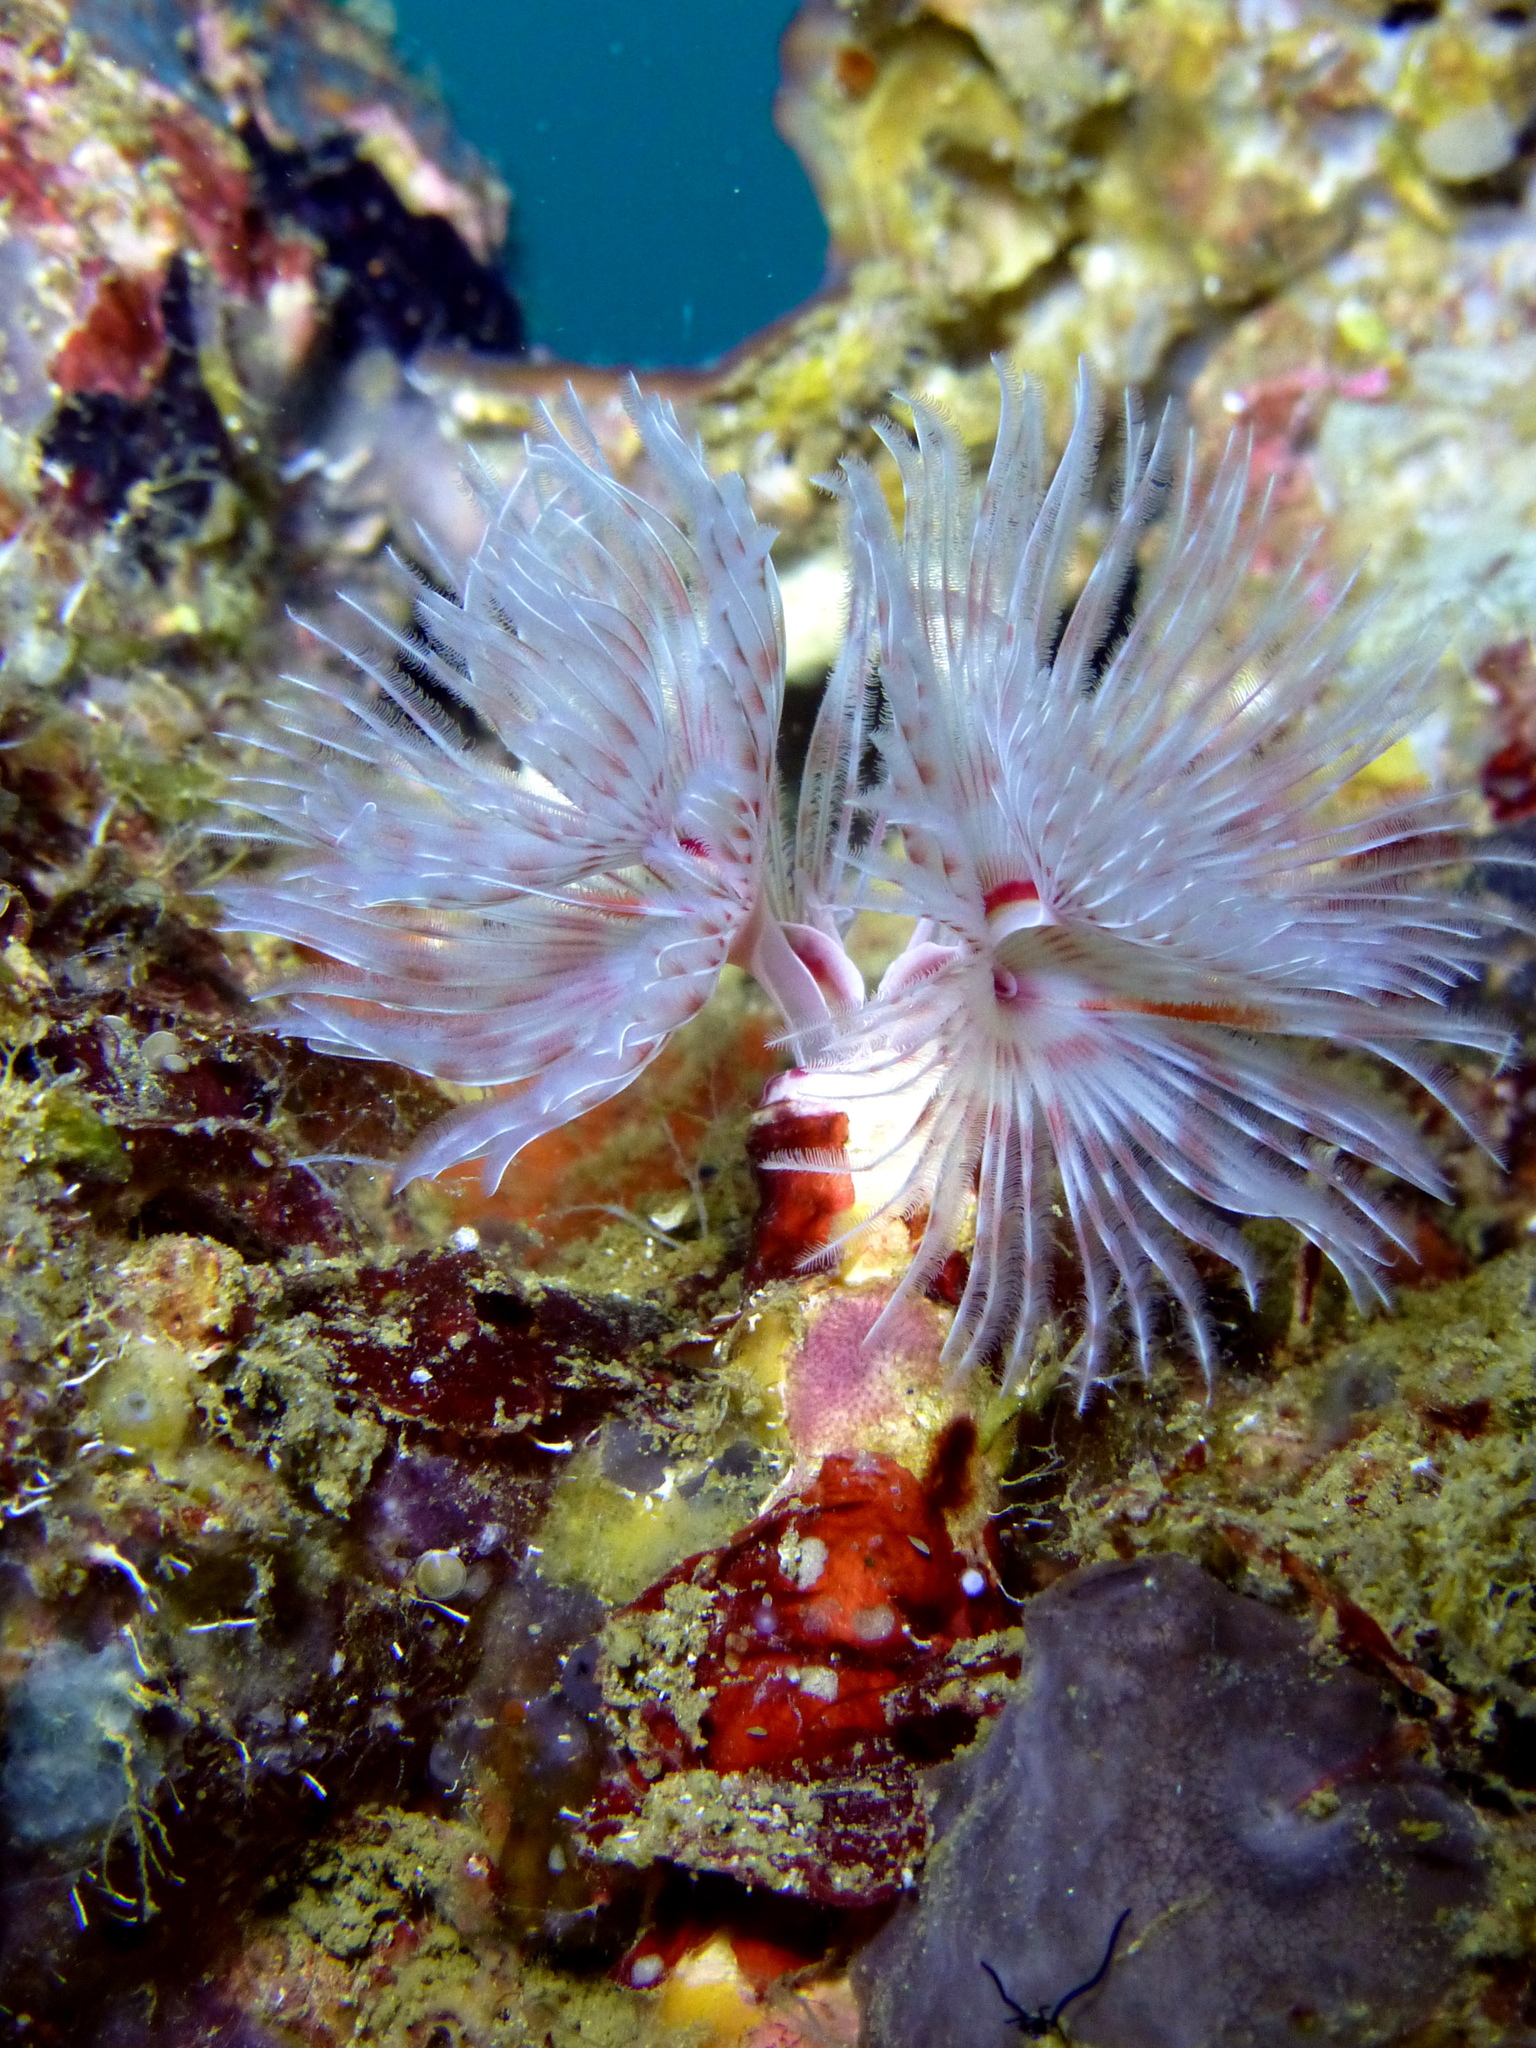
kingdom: Animalia
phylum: Annelida
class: Polychaeta
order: Sabellida
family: Serpulidae
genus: Protula
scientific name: Protula bispiralis
